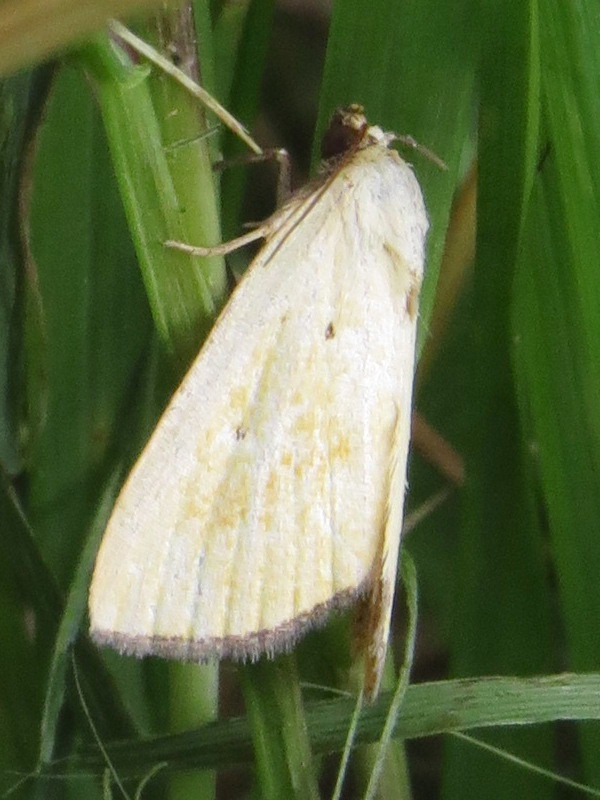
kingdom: Animalia
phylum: Arthropoda
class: Insecta
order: Lepidoptera
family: Noctuidae
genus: Marimatha
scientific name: Marimatha nigrofimbria
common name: Black-bordered lemon moth
